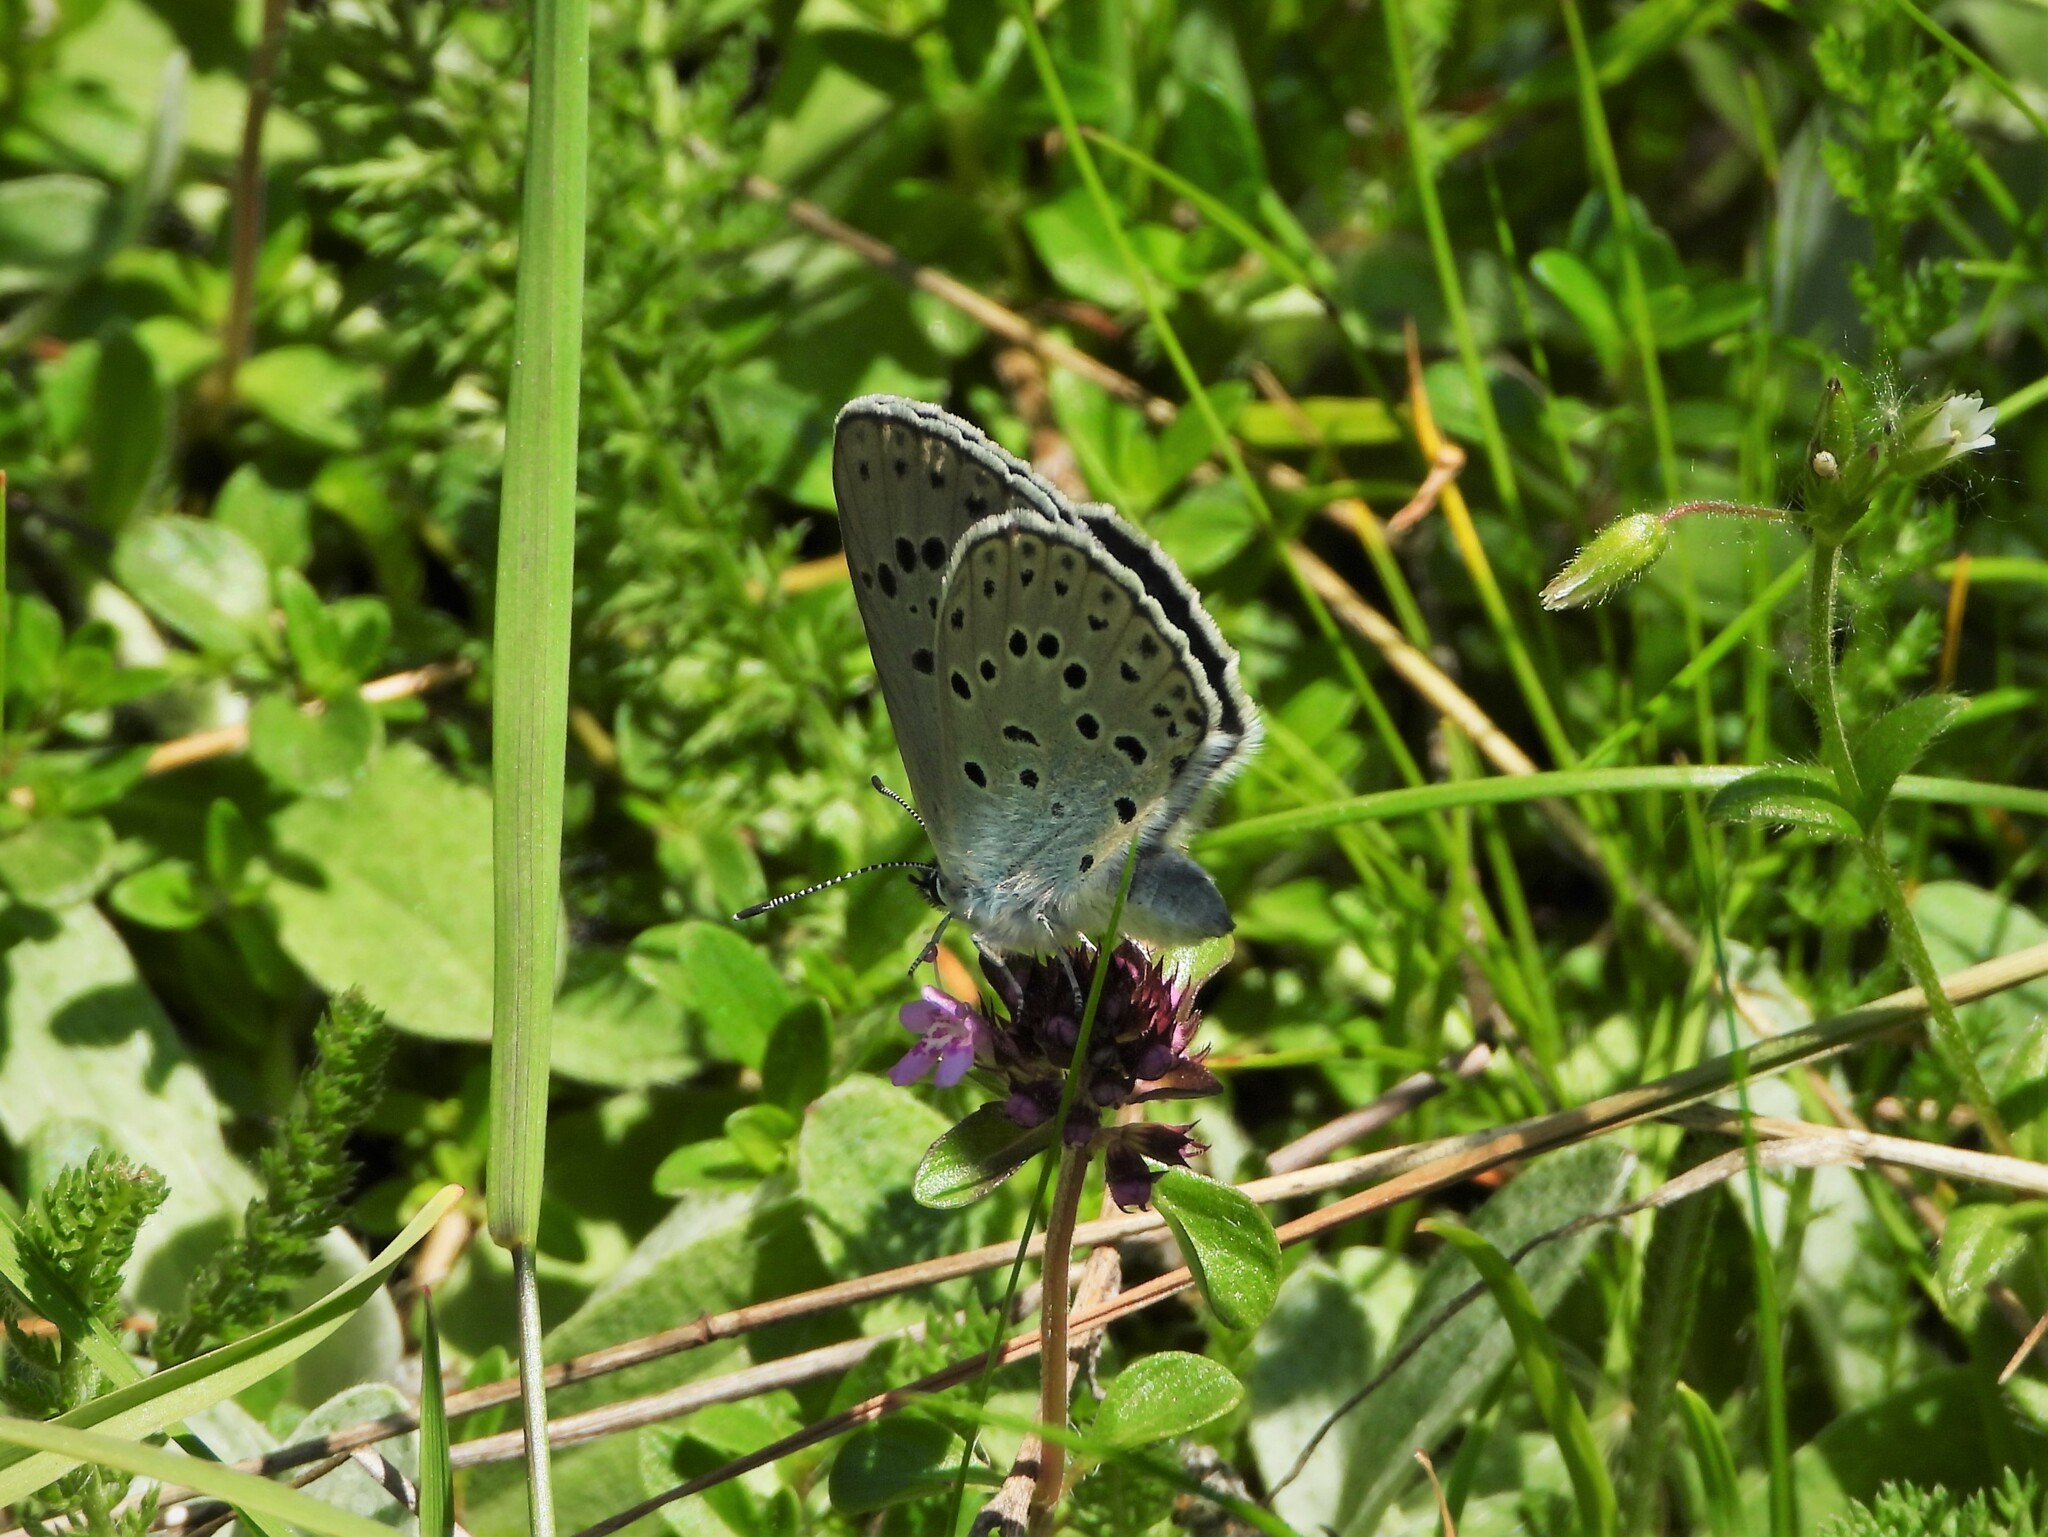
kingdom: Animalia
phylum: Arthropoda
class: Insecta
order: Lepidoptera
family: Lycaenidae
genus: Maculinea
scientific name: Maculinea arion
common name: Large blue
